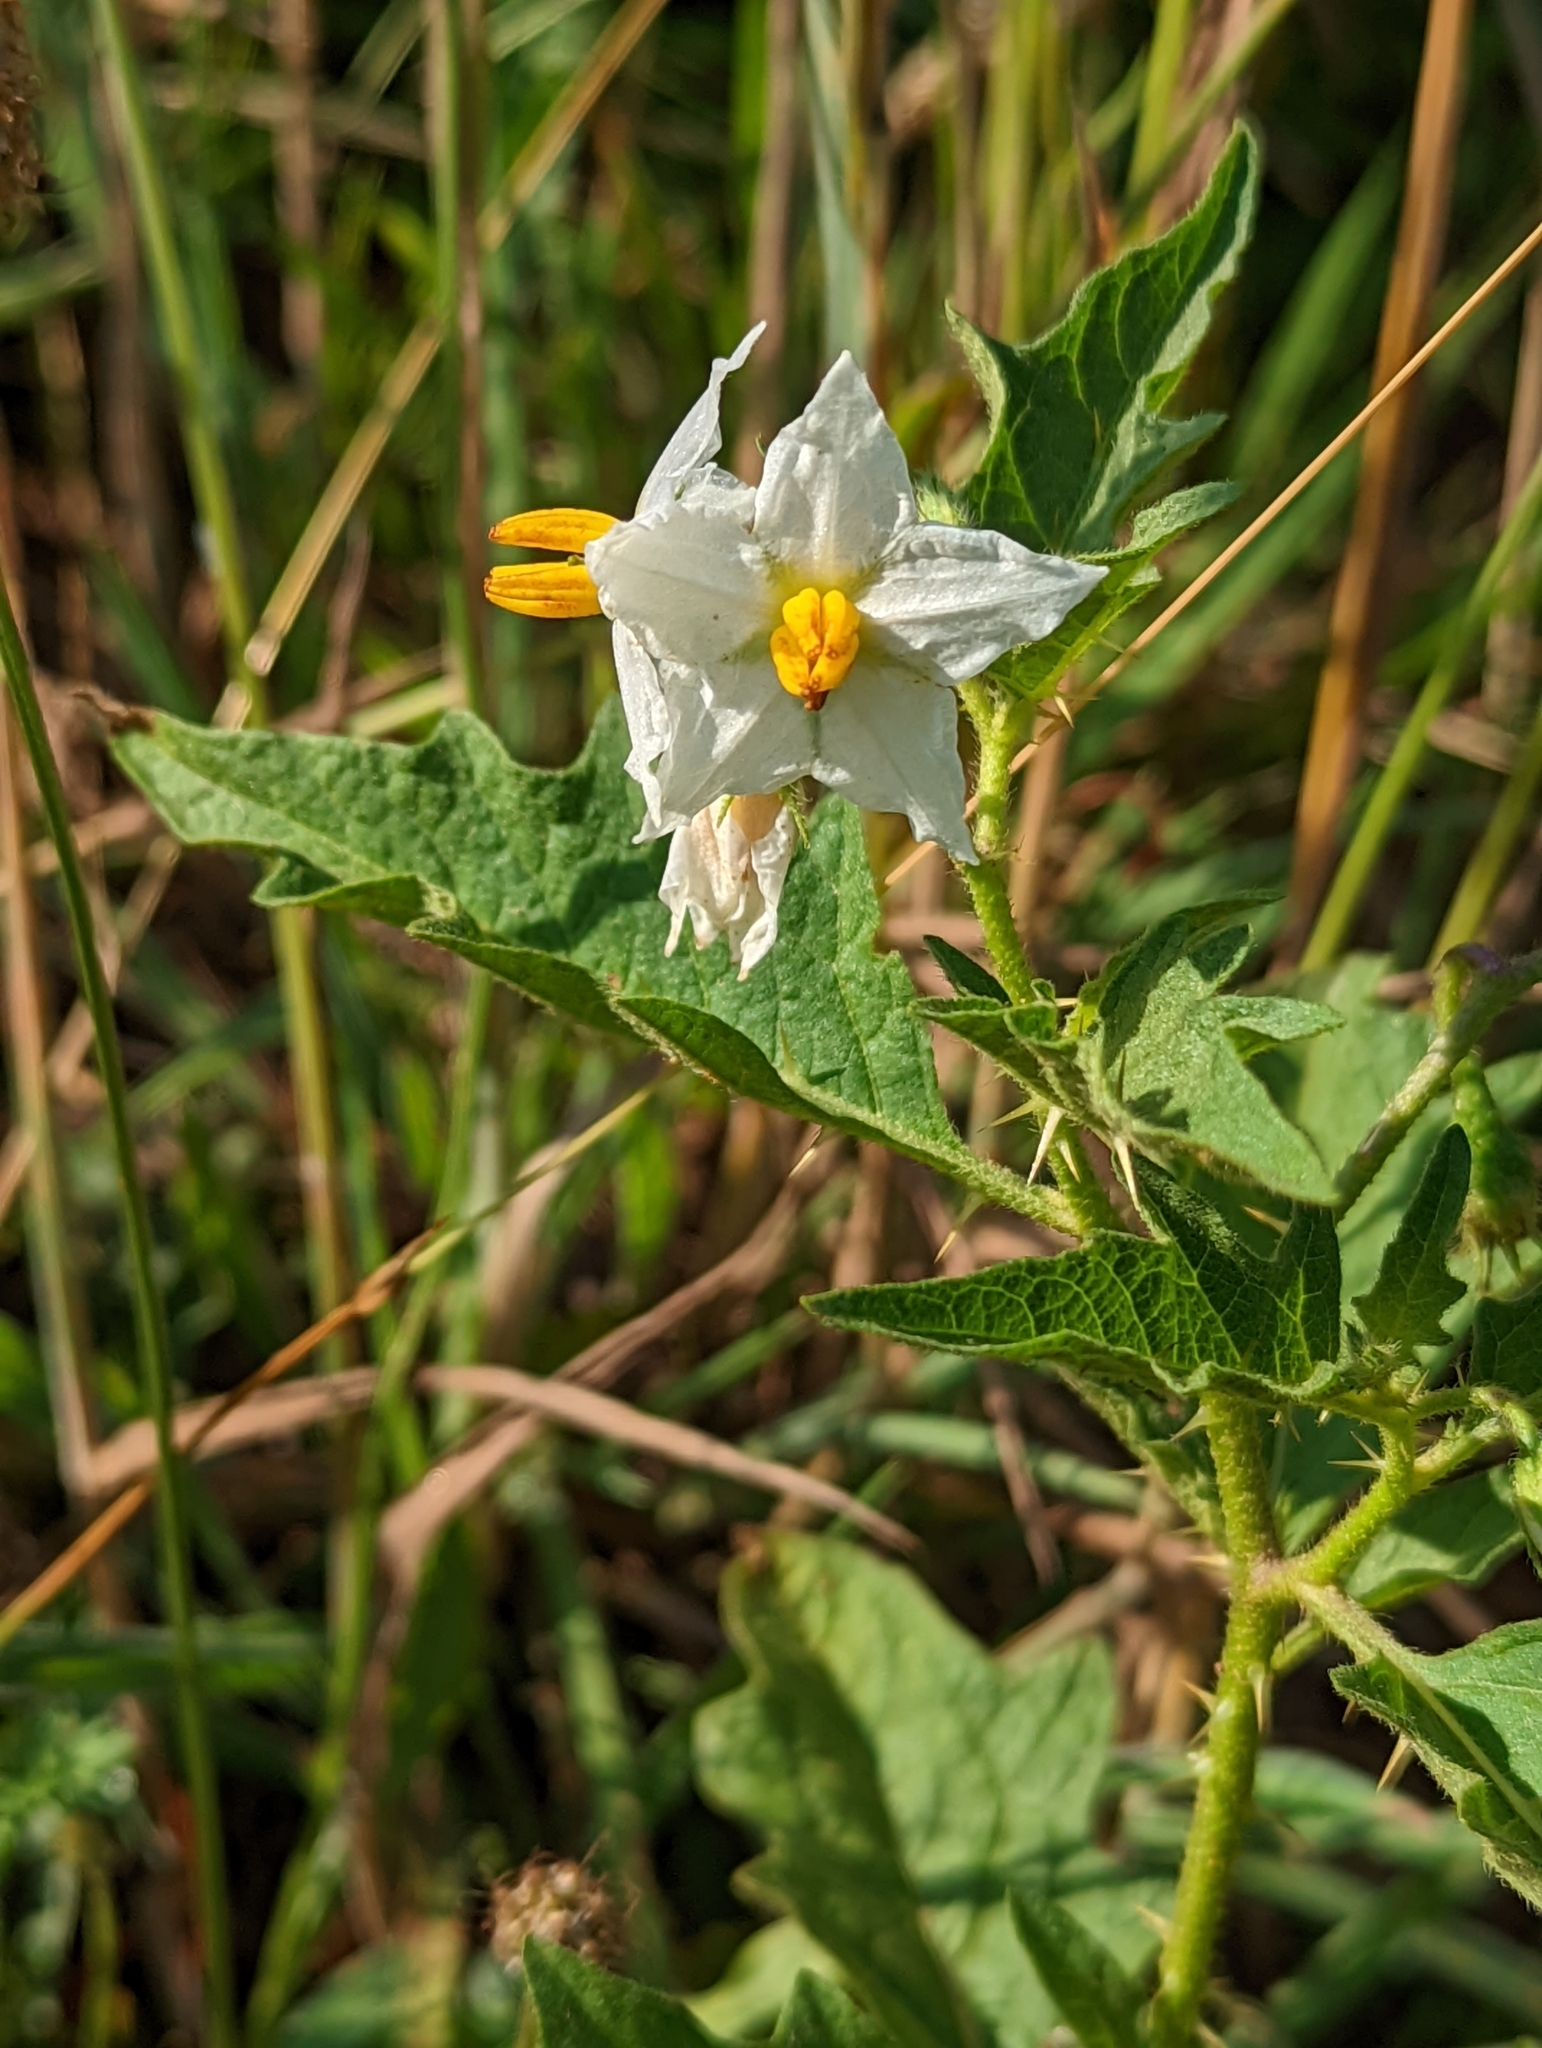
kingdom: Plantae
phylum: Tracheophyta
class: Magnoliopsida
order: Solanales
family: Solanaceae
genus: Solanum
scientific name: Solanum carolinense
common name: Horse-nettle
